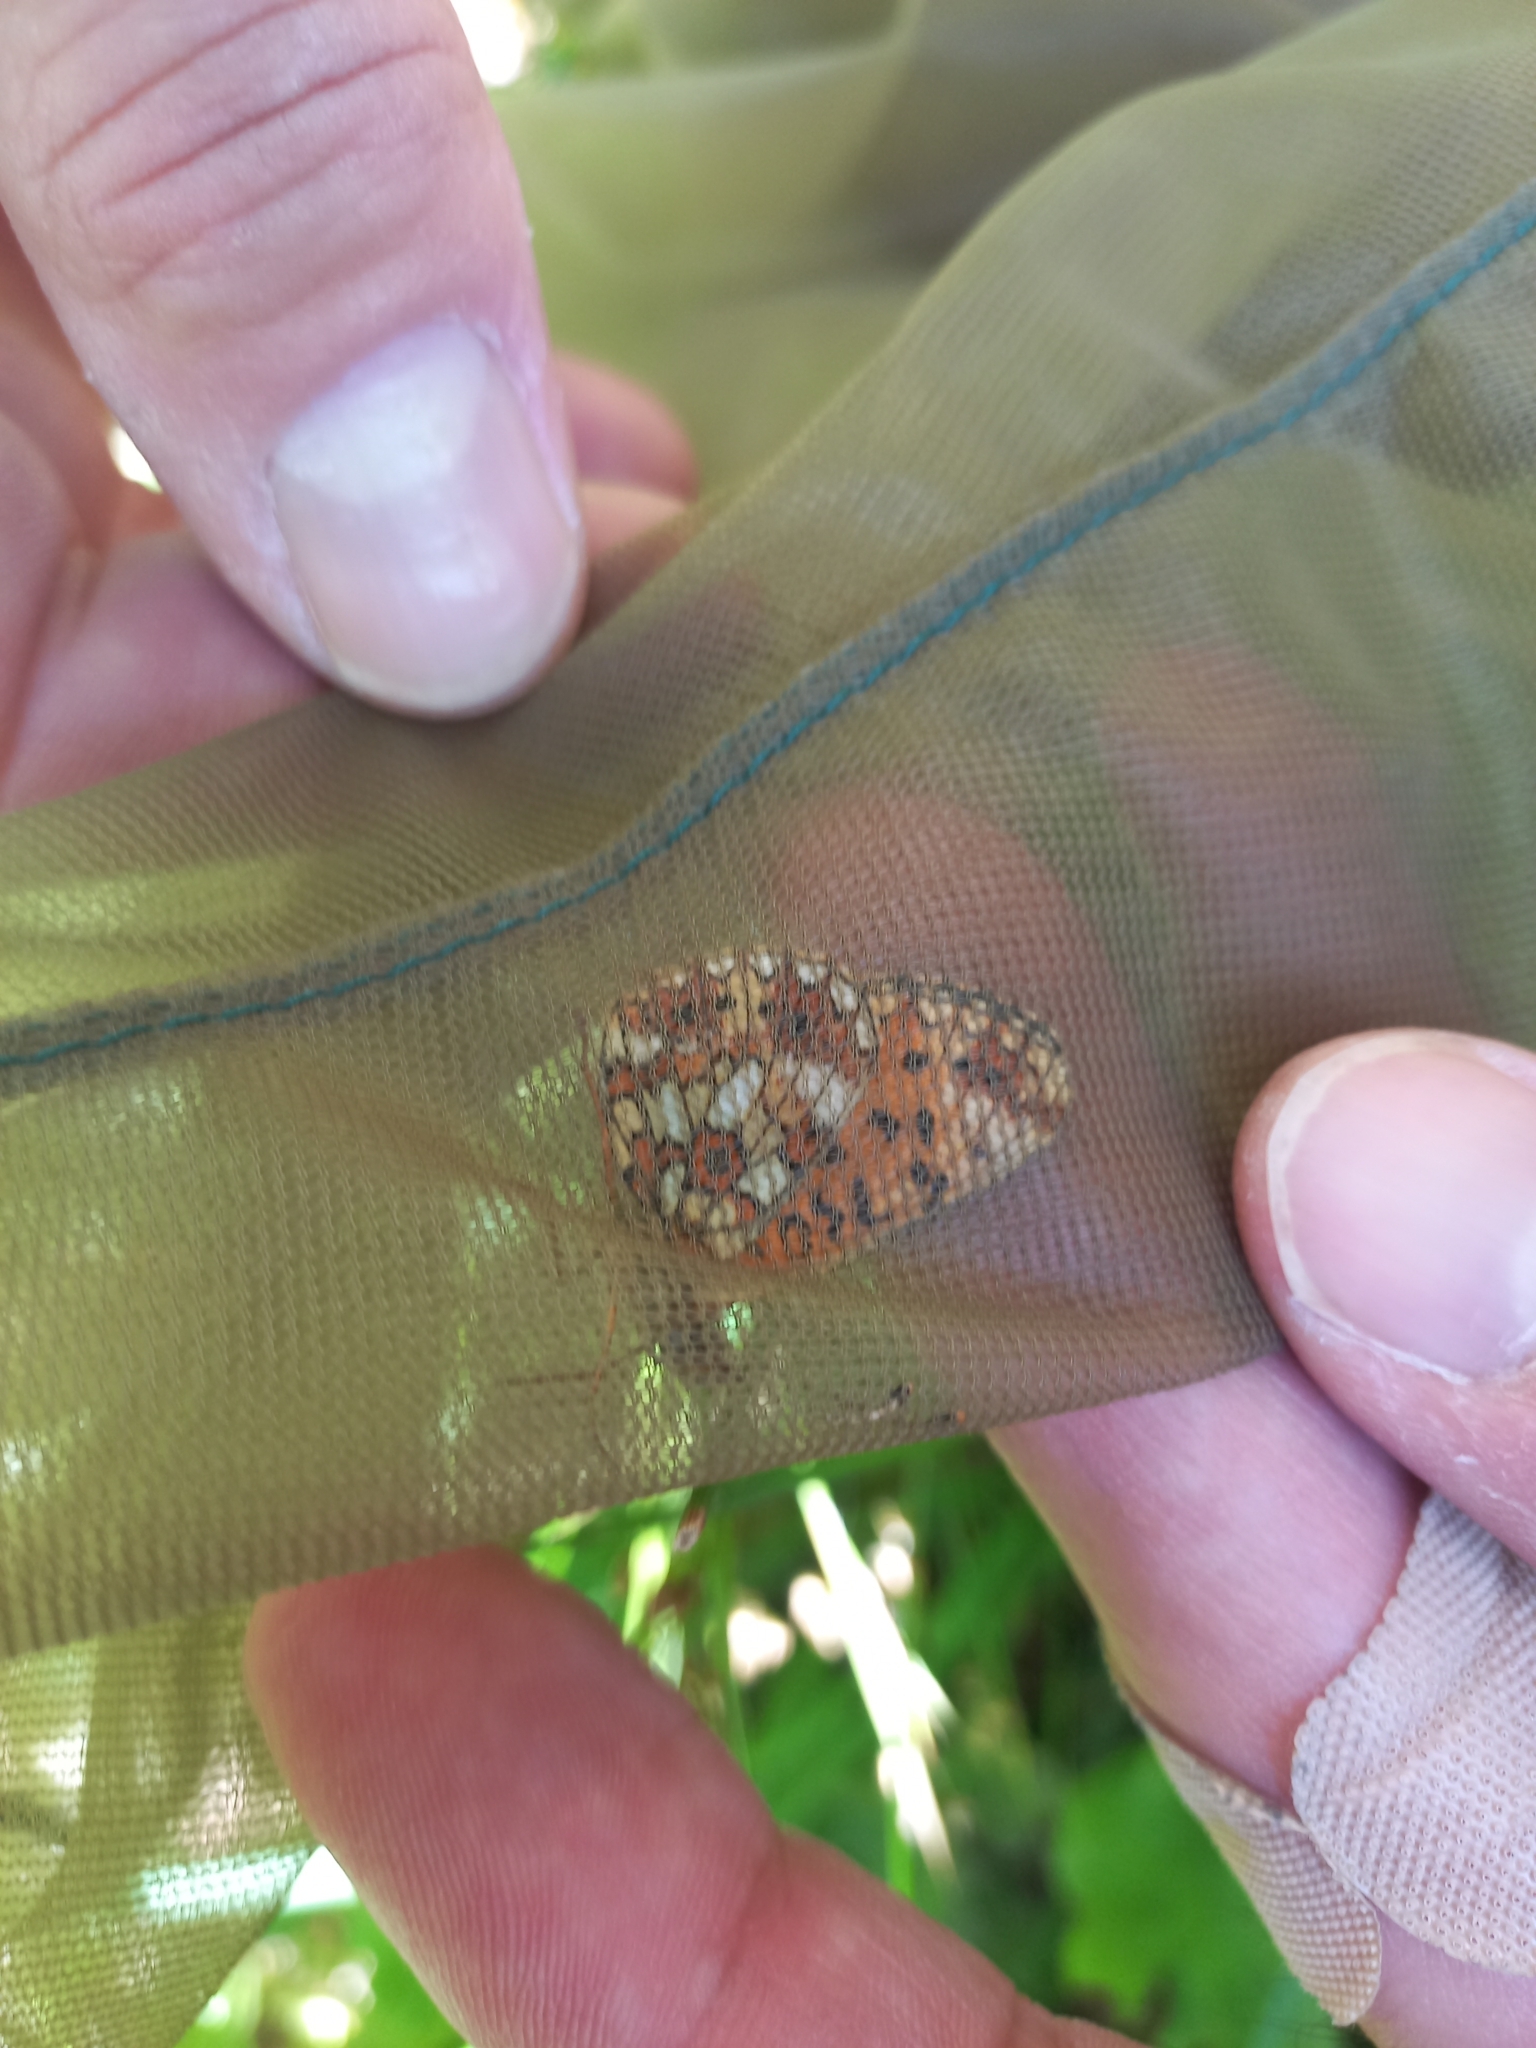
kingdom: Animalia
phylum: Arthropoda
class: Insecta
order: Lepidoptera
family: Nymphalidae
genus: Boloria
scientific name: Boloria selene
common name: Small pearl-bordered fritillary
